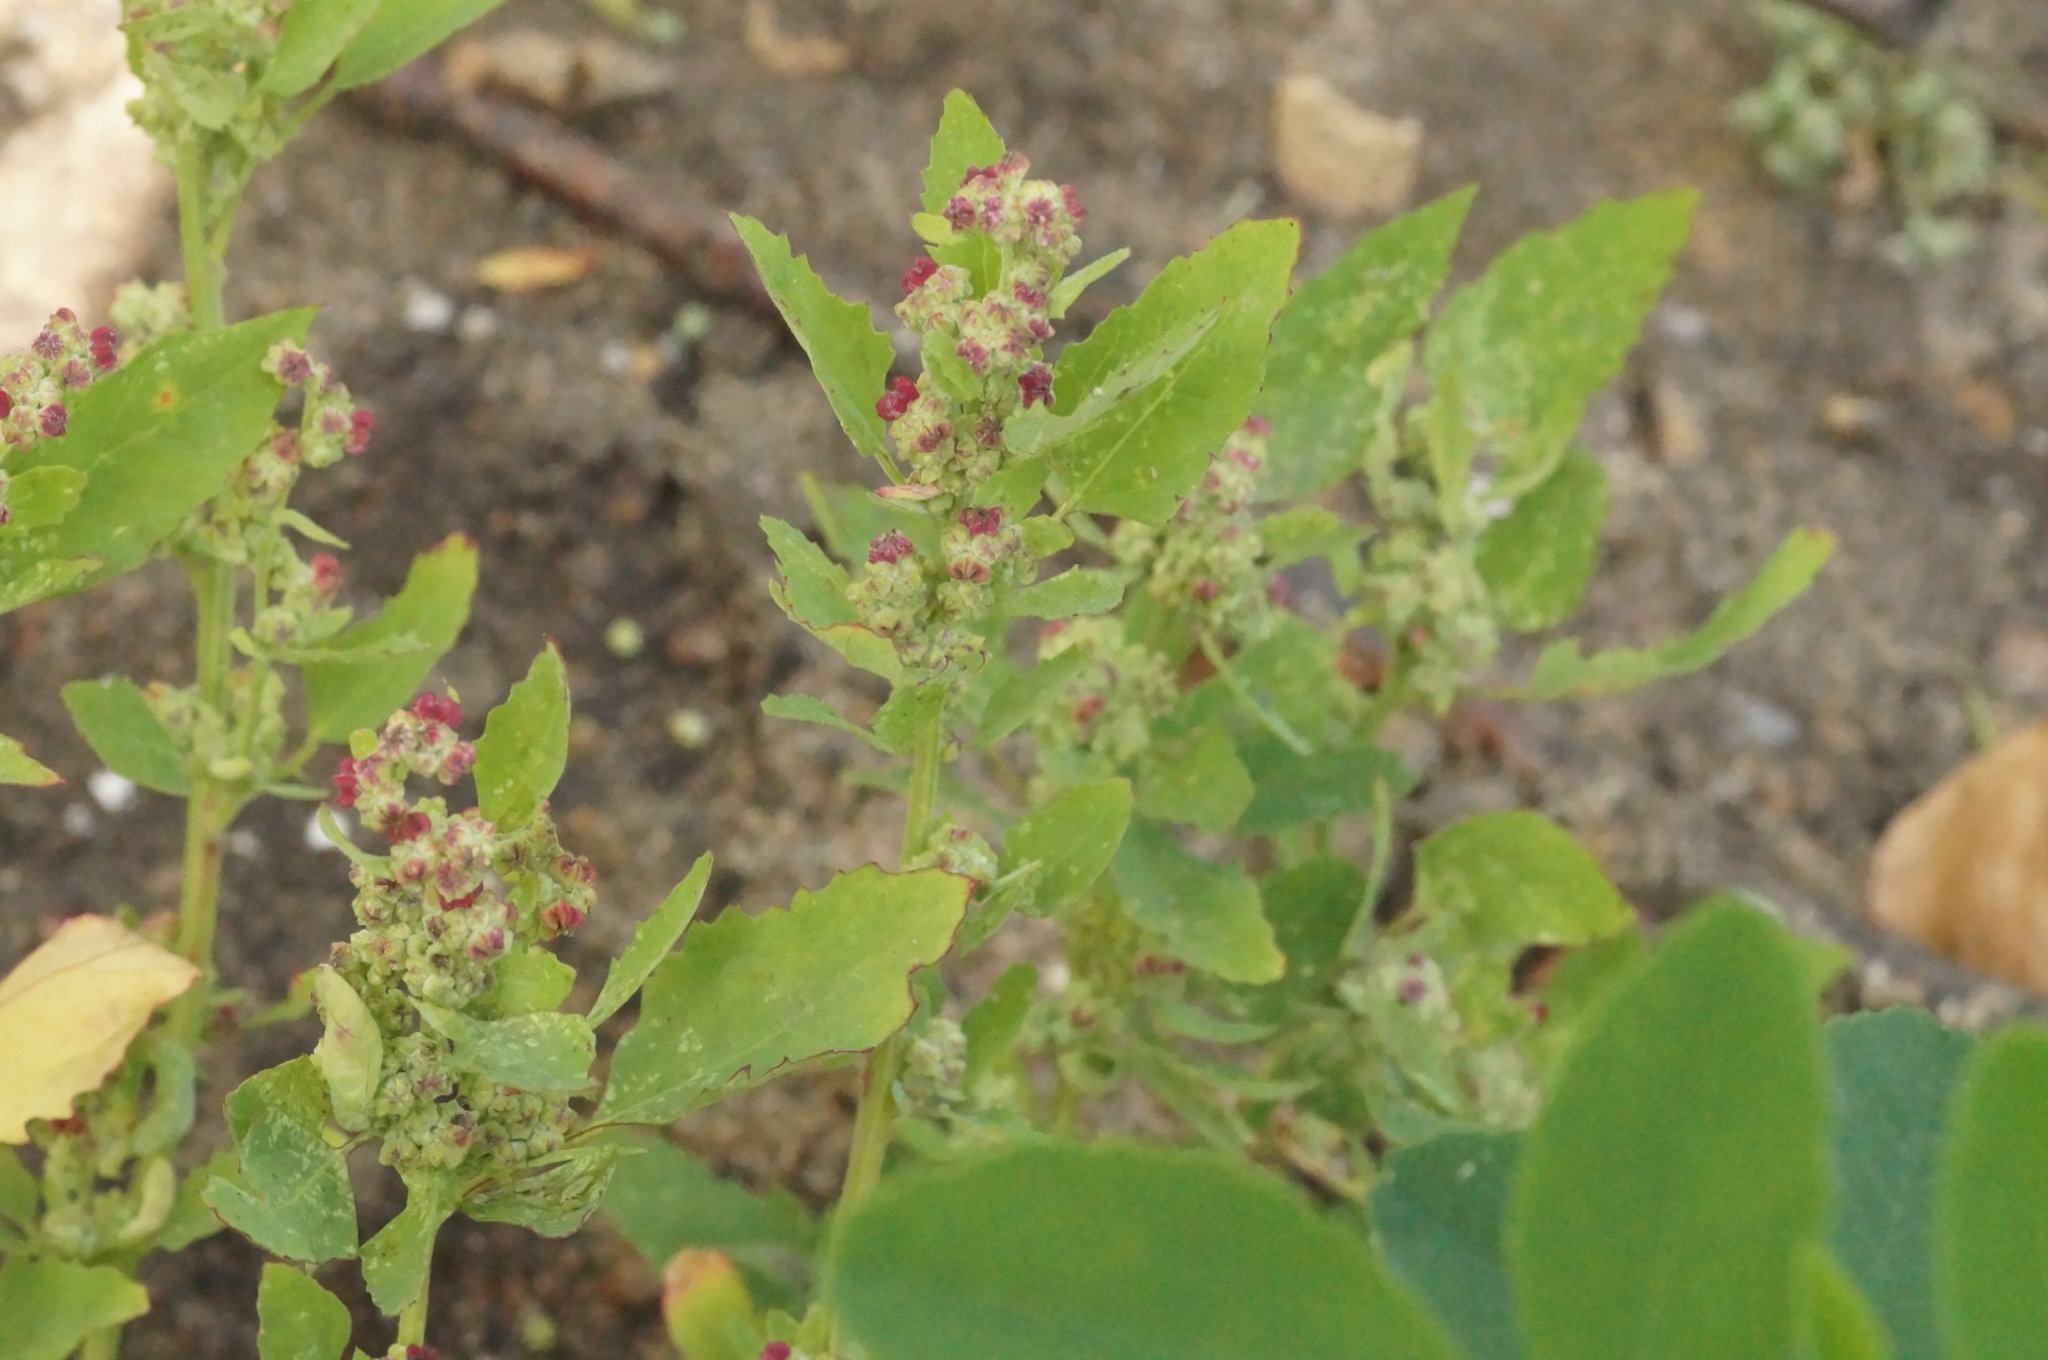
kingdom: Plantae
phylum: Tracheophyta
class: Magnoliopsida
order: Caryophyllales
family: Amaranthaceae
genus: Chenopodium
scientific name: Chenopodium album
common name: Fat-hen
